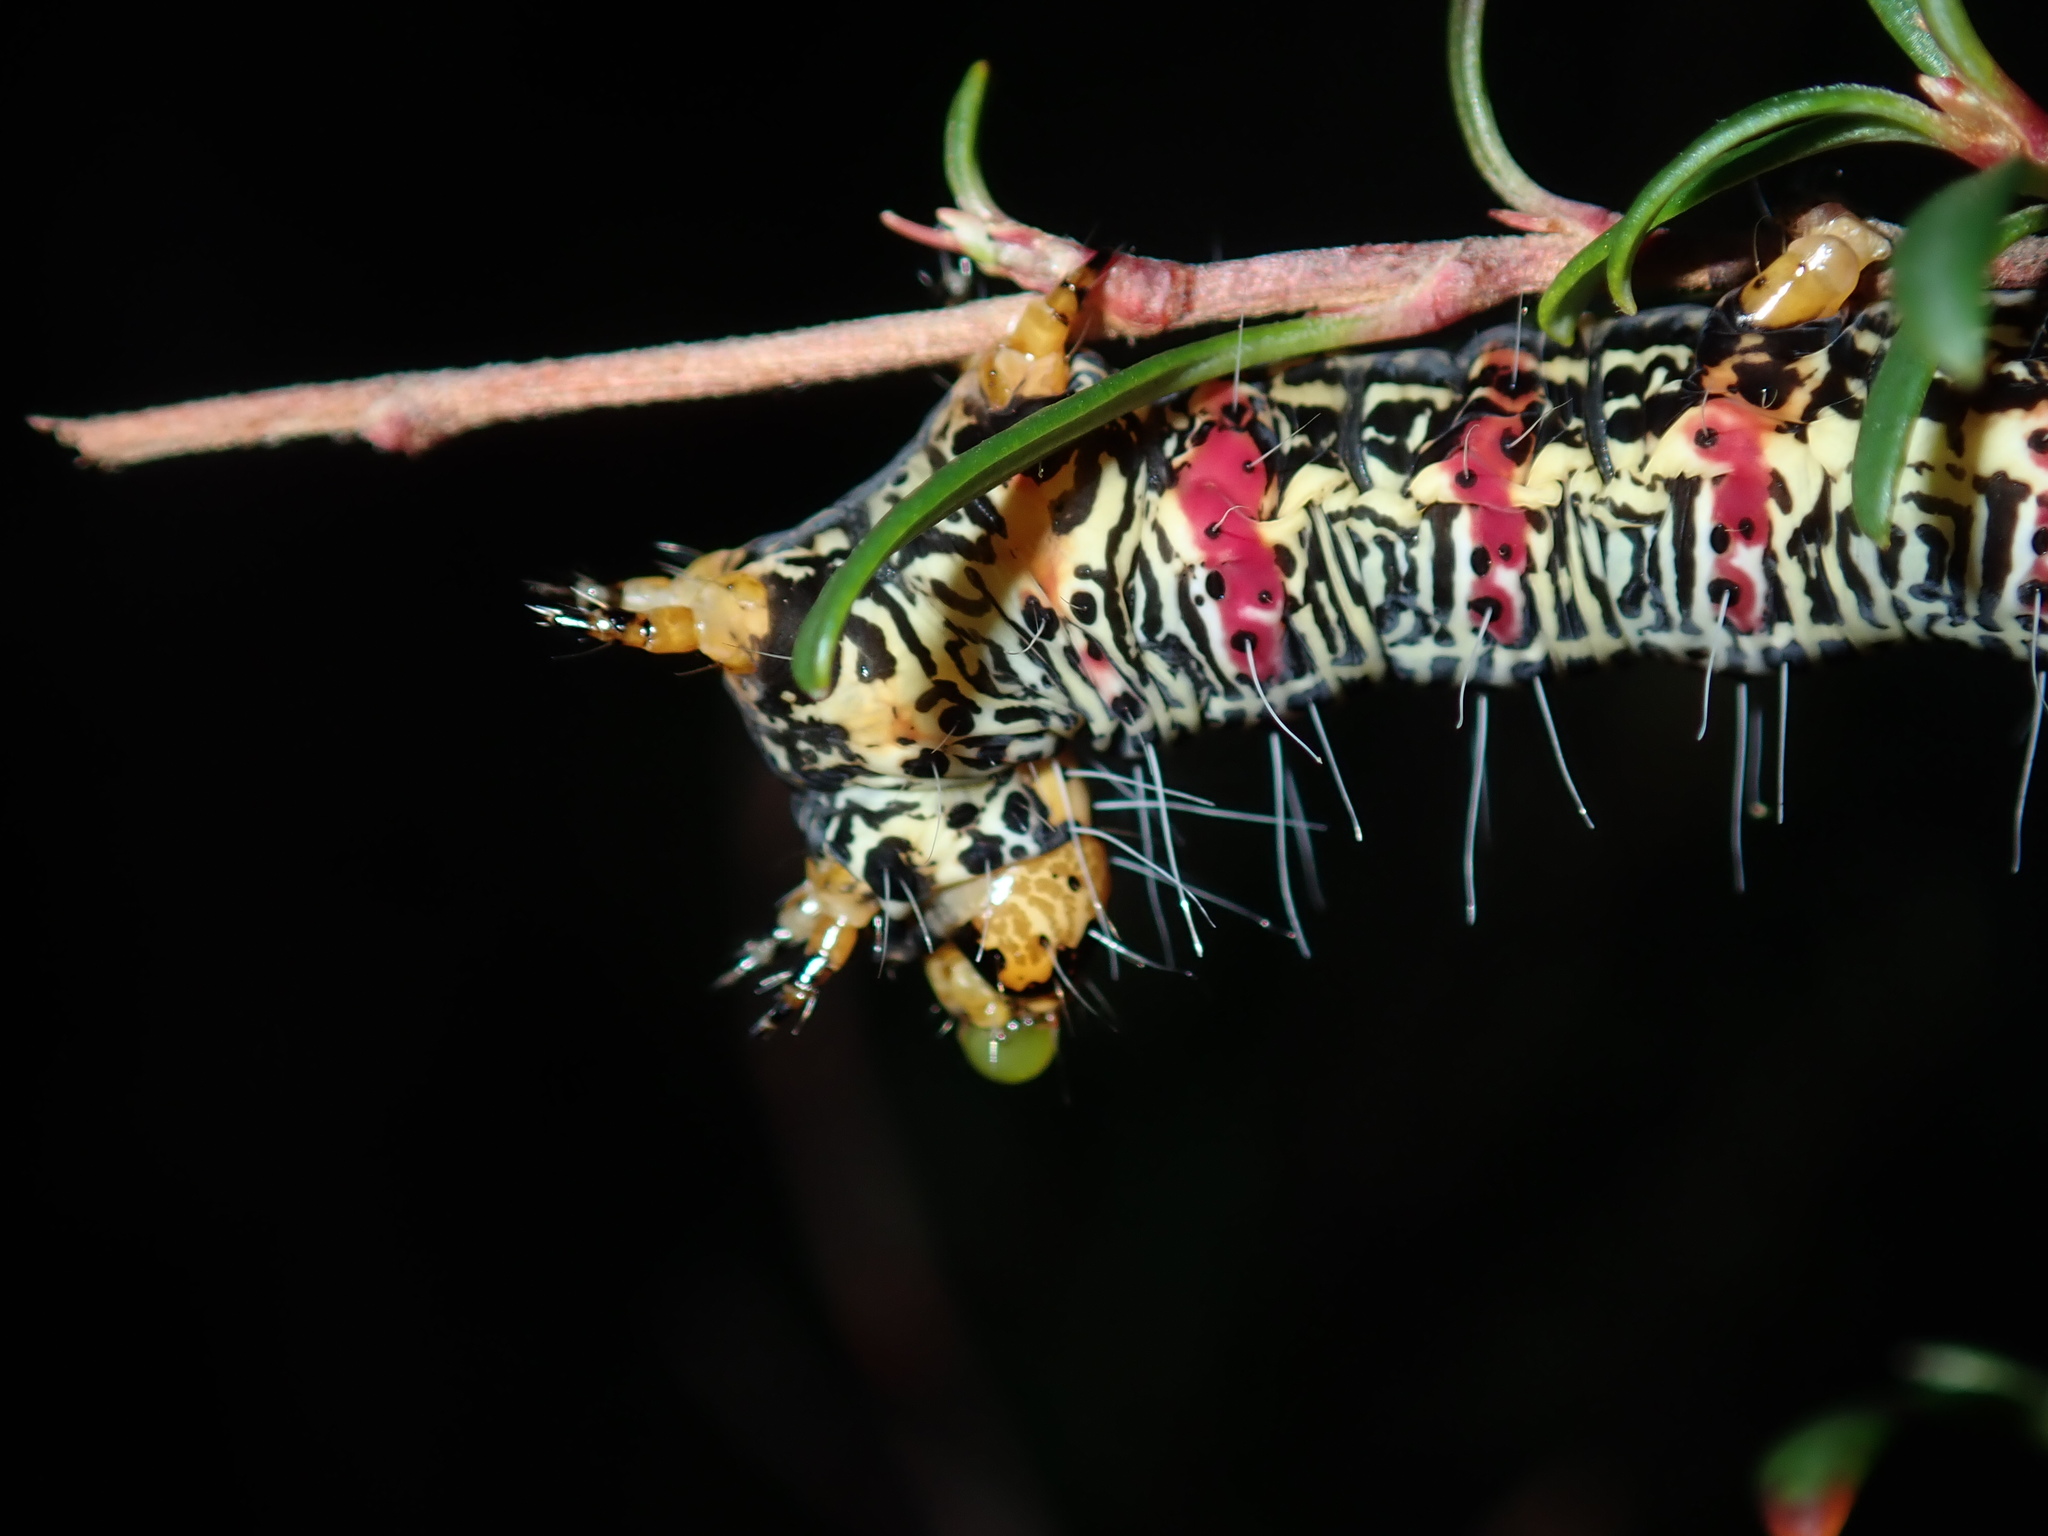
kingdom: Animalia
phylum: Arthropoda
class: Insecta
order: Lepidoptera
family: Noctuidae
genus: Phalaenoides
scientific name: Phalaenoides glycinae
